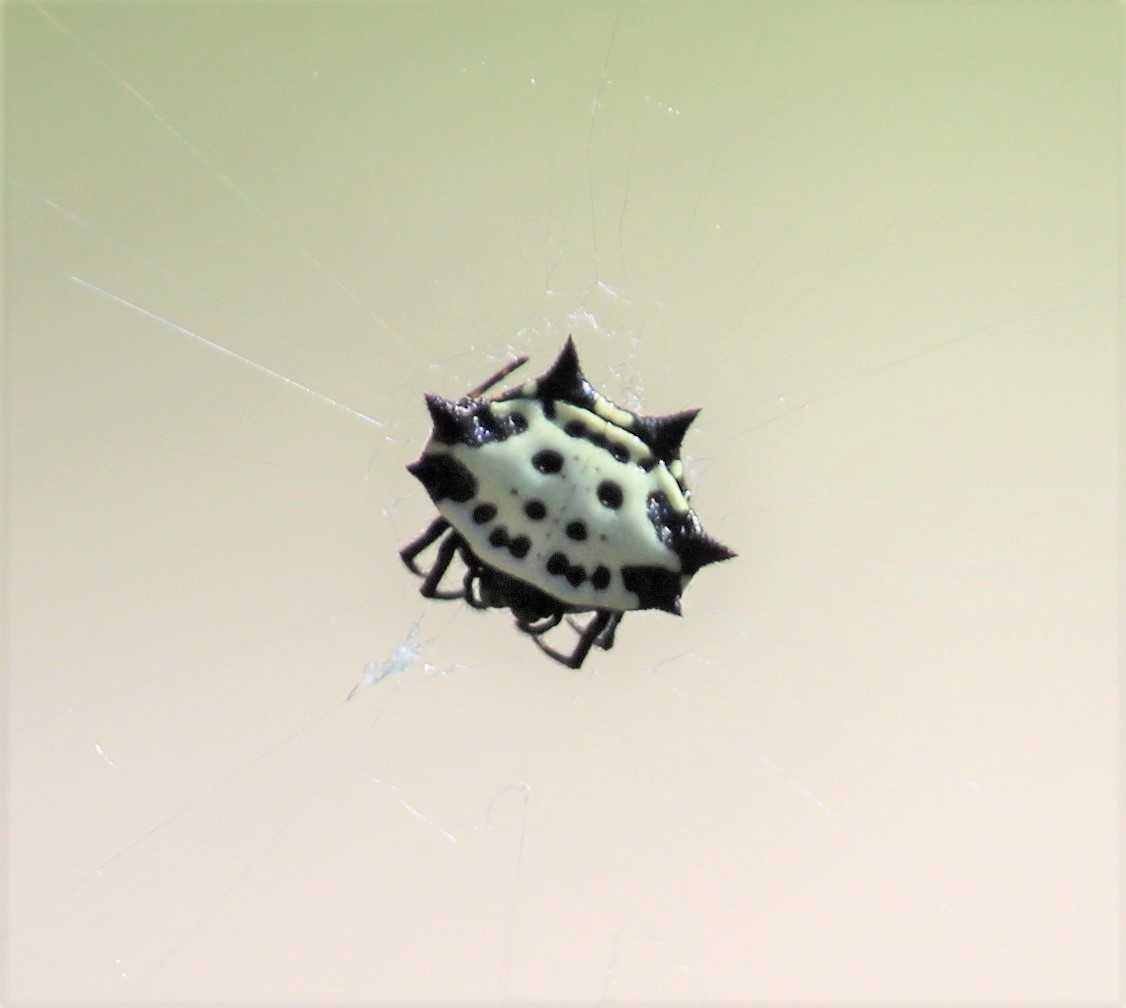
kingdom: Animalia
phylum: Arthropoda
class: Arachnida
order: Araneae
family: Araneidae
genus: Gasteracantha
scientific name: Gasteracantha cancriformis
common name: Orb weavers
